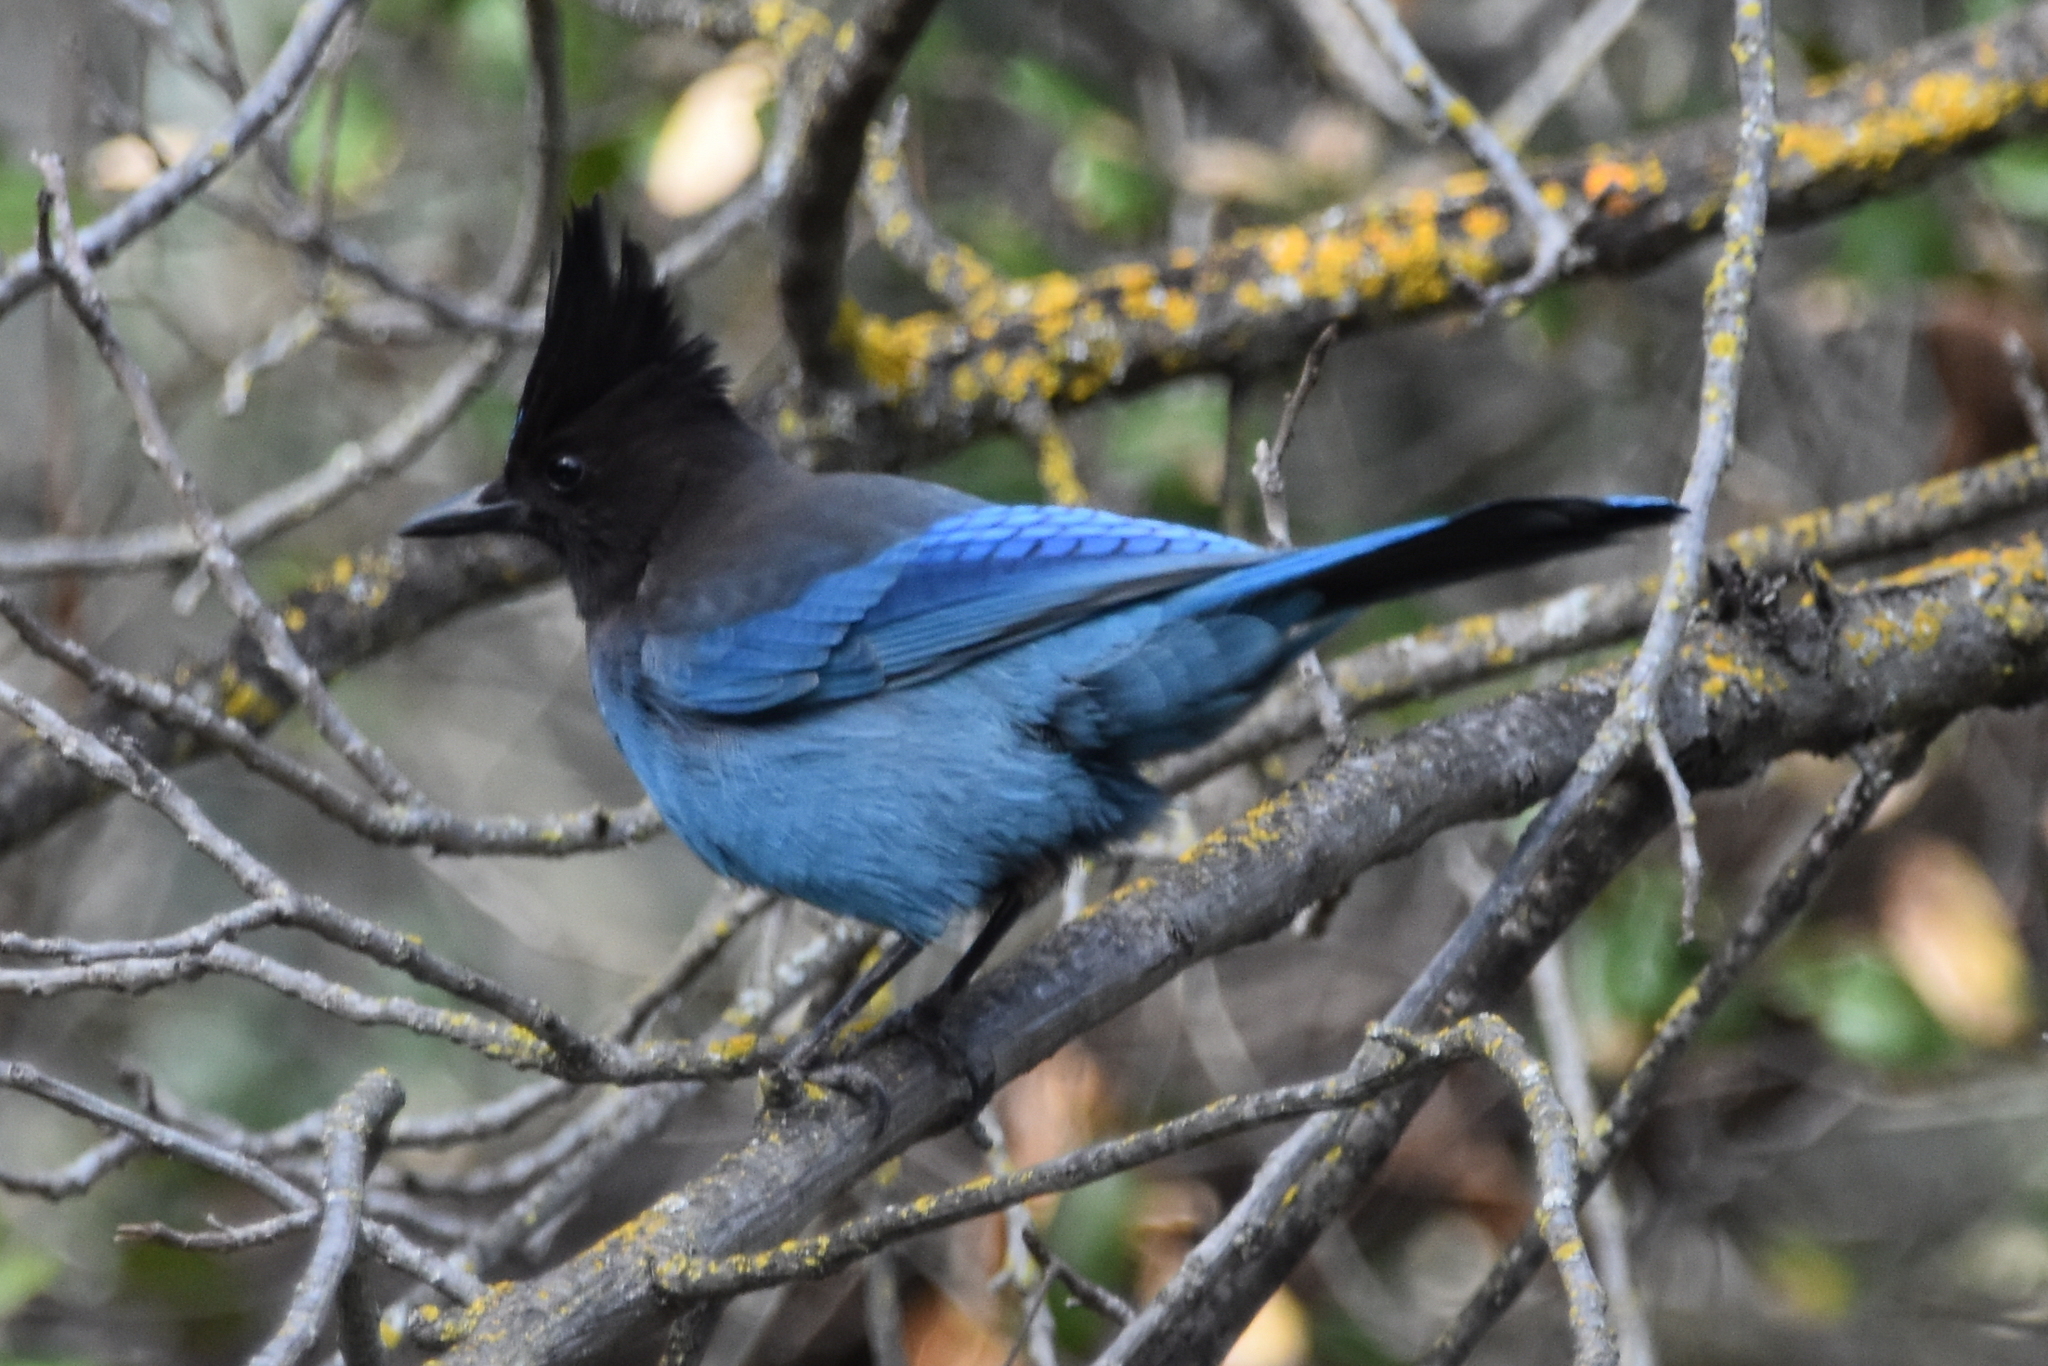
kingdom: Animalia
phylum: Chordata
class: Aves
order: Passeriformes
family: Corvidae
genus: Cyanocitta
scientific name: Cyanocitta stelleri
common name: Steller's jay
